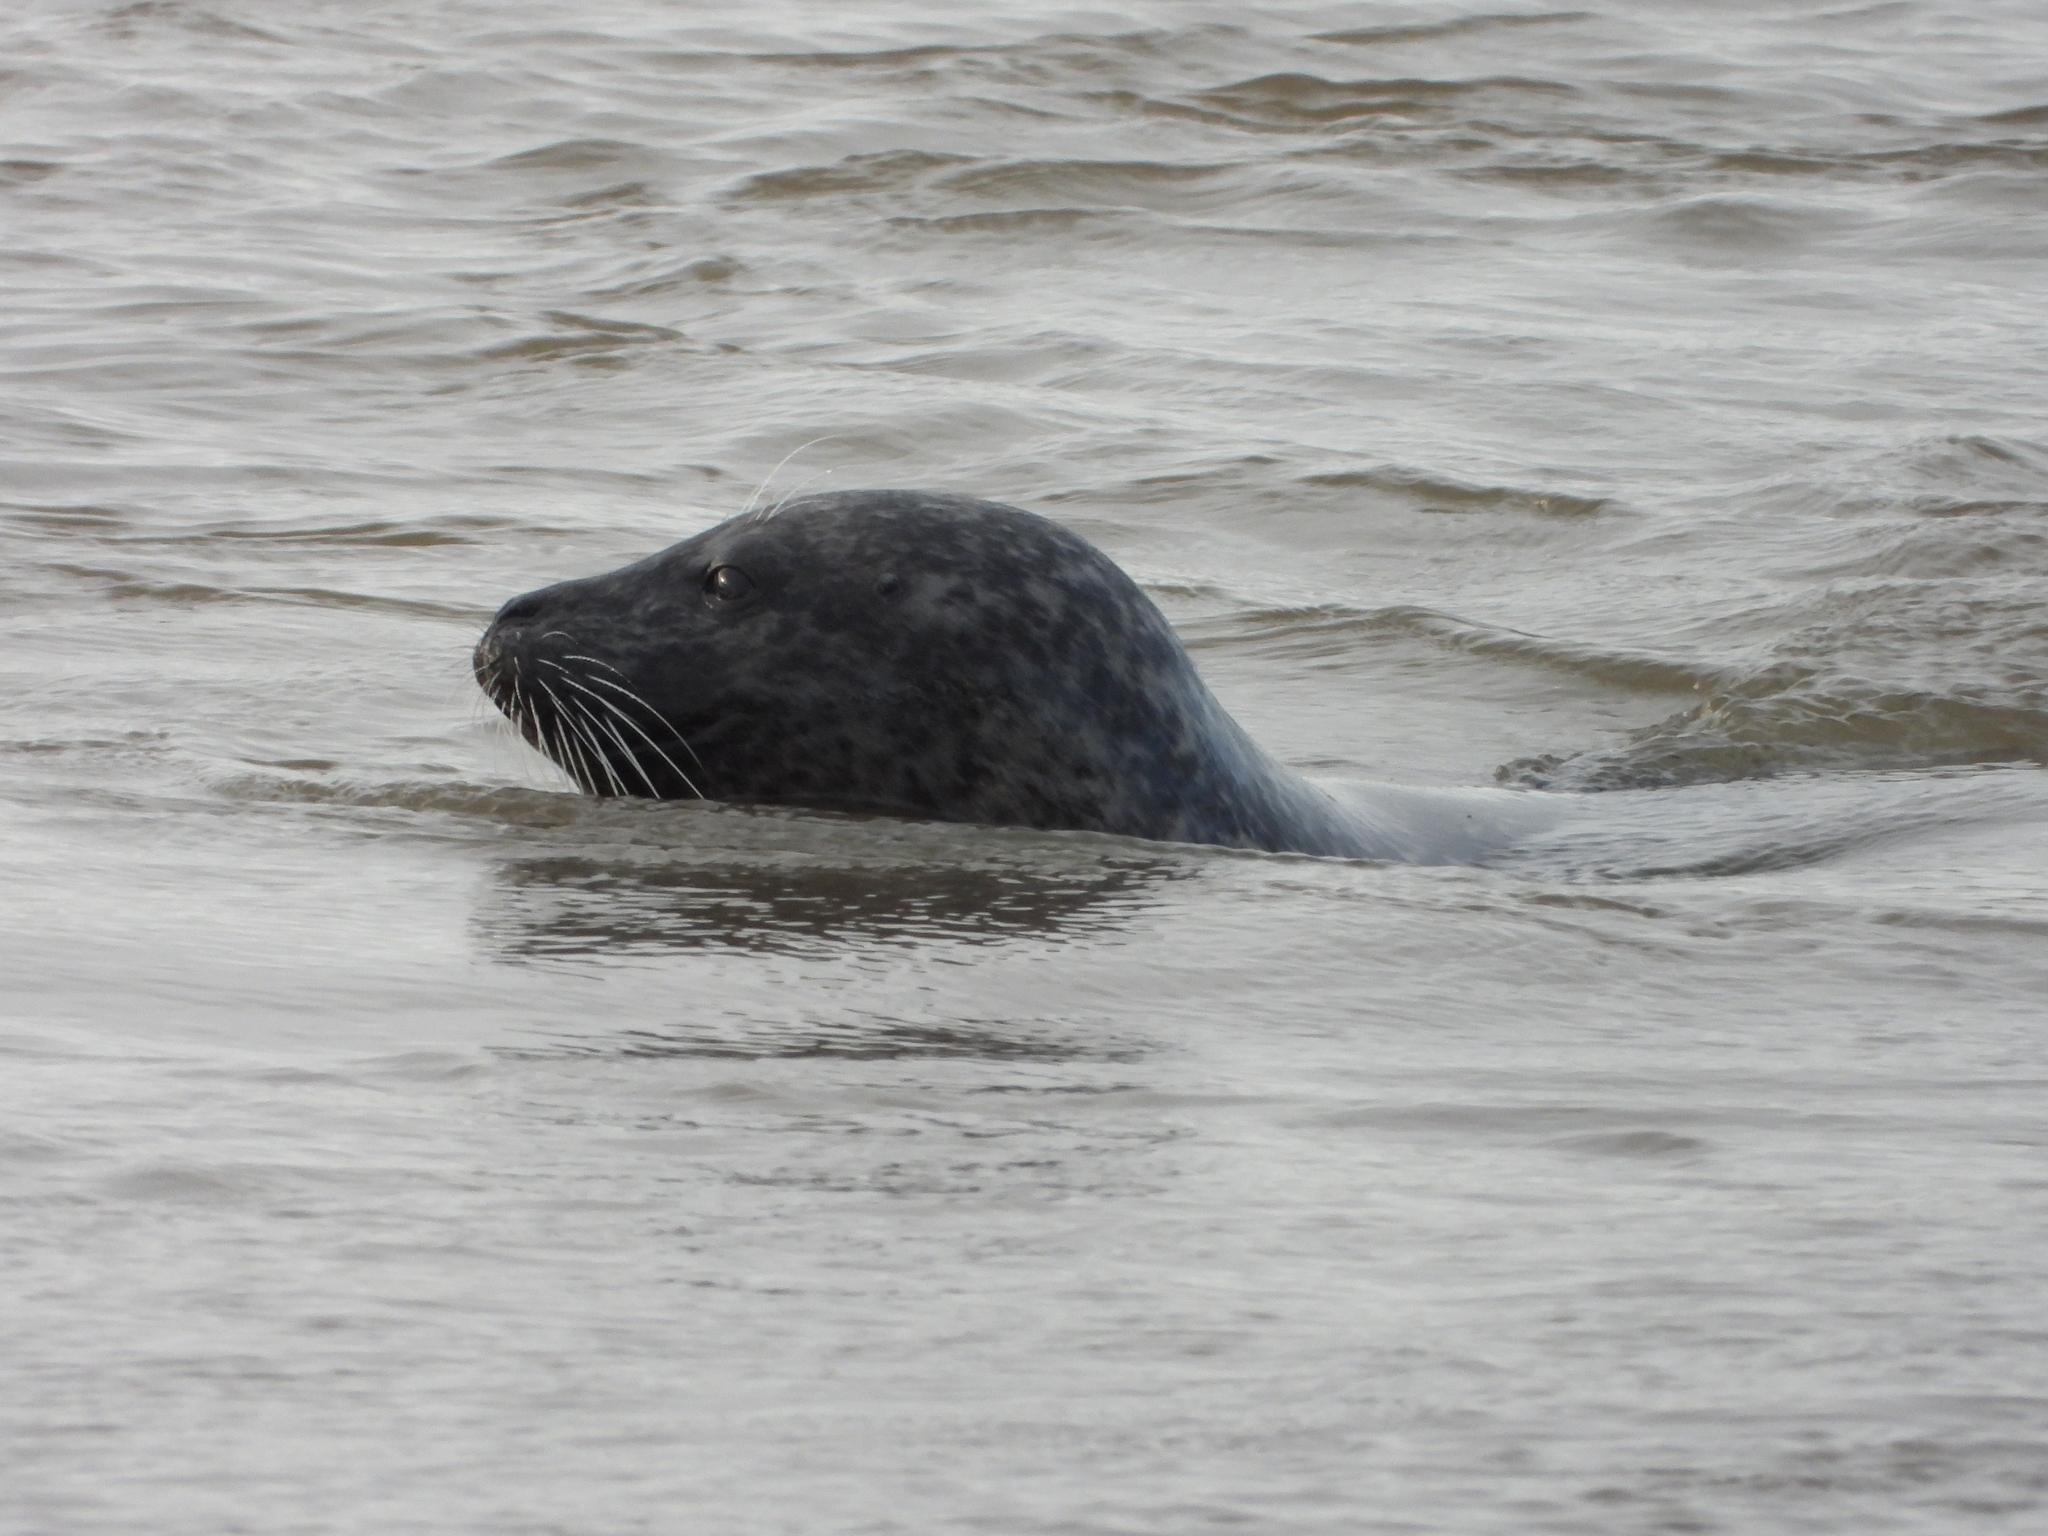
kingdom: Animalia
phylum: Chordata
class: Mammalia
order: Carnivora
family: Phocidae
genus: Phoca
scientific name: Phoca vitulina
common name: Harbor seal
